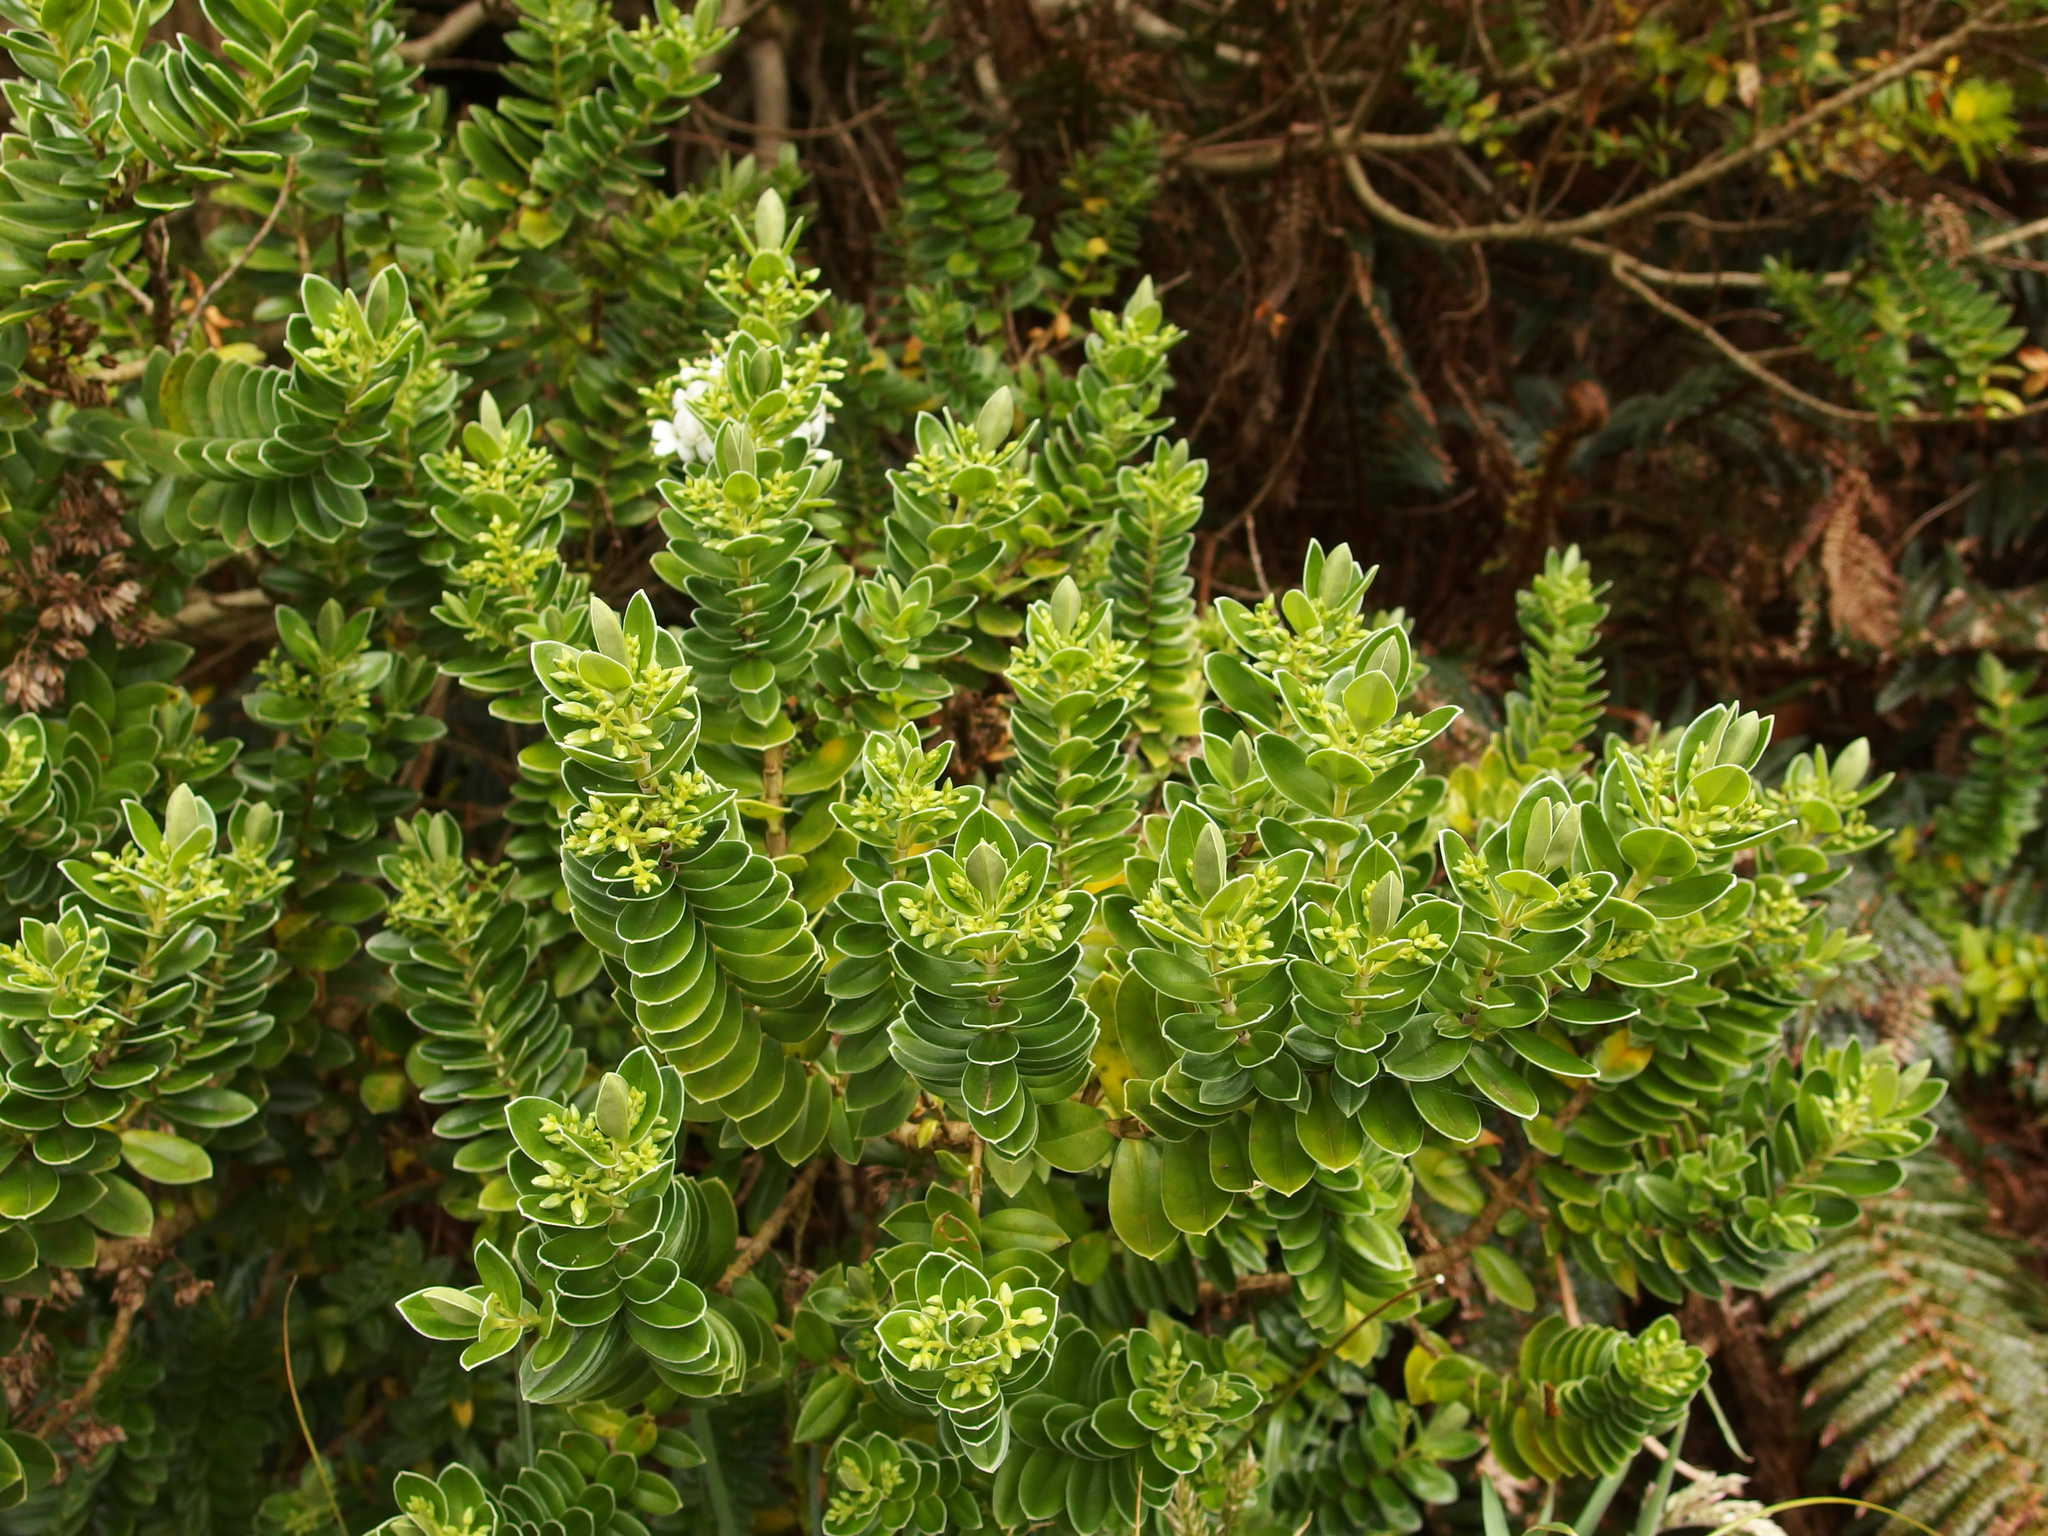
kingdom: Plantae
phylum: Tracheophyta
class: Magnoliopsida
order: Lamiales
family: Plantaginaceae
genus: Veronica
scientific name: Veronica elliptica
